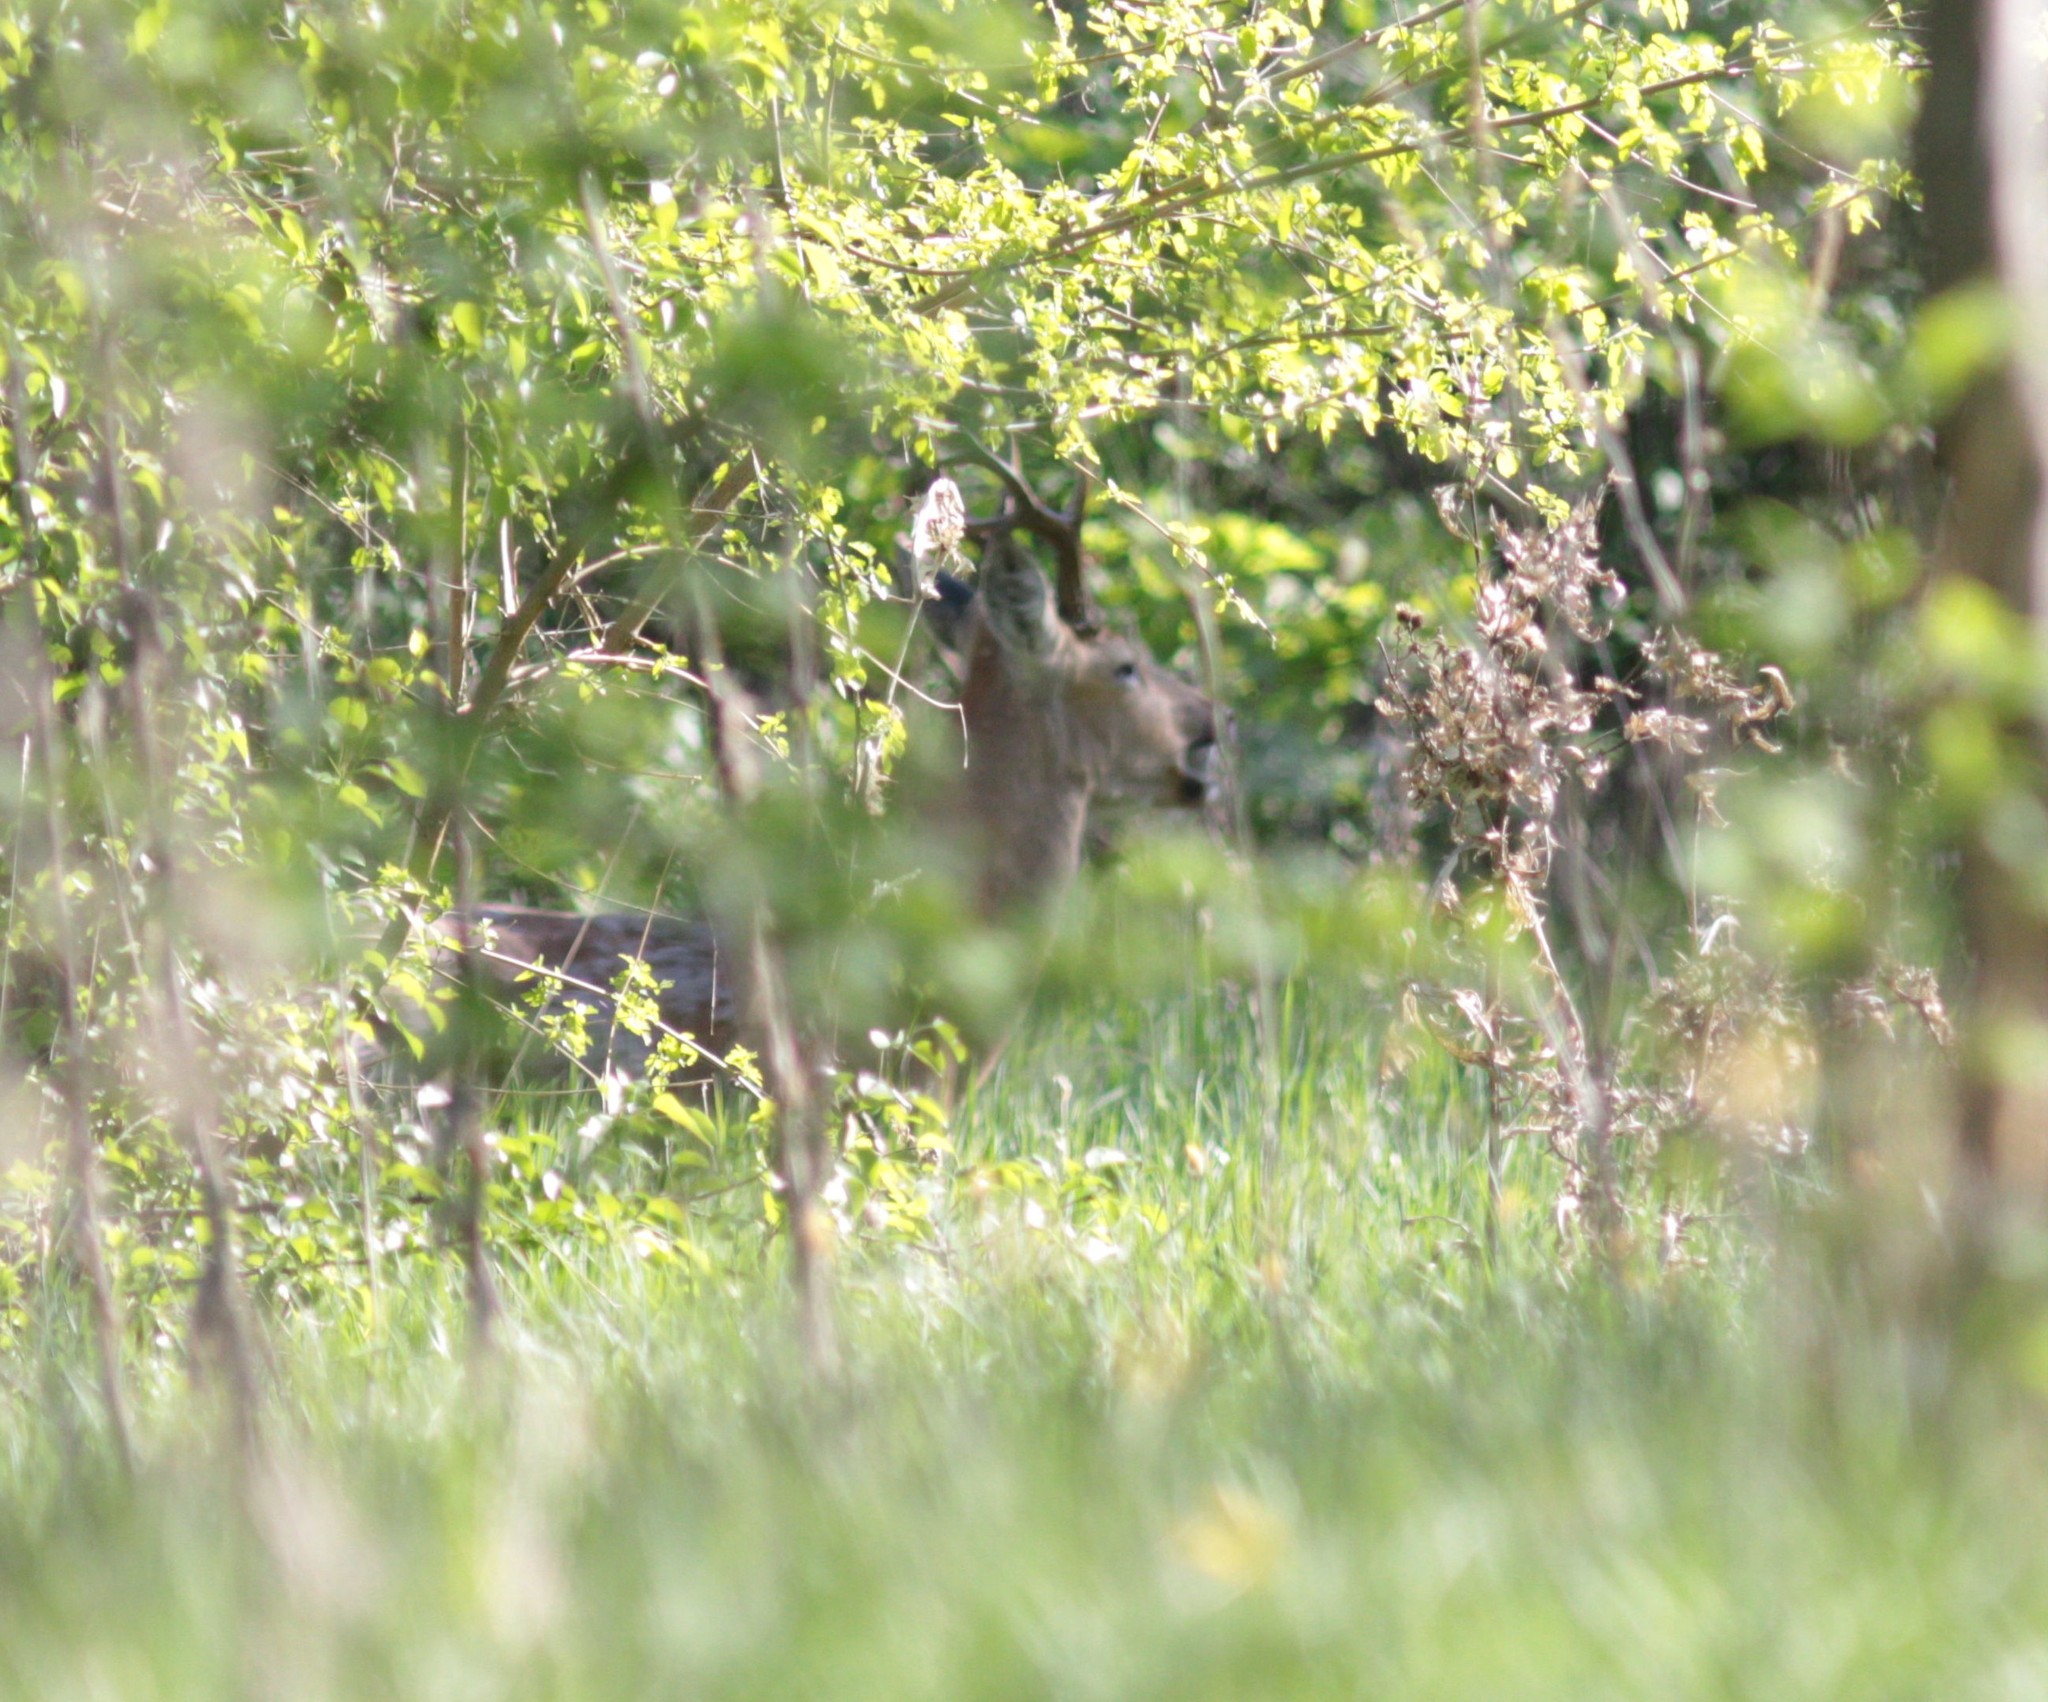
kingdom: Animalia
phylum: Chordata
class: Mammalia
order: Artiodactyla
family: Cervidae
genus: Capreolus
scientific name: Capreolus pygargus
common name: Siberian roe
